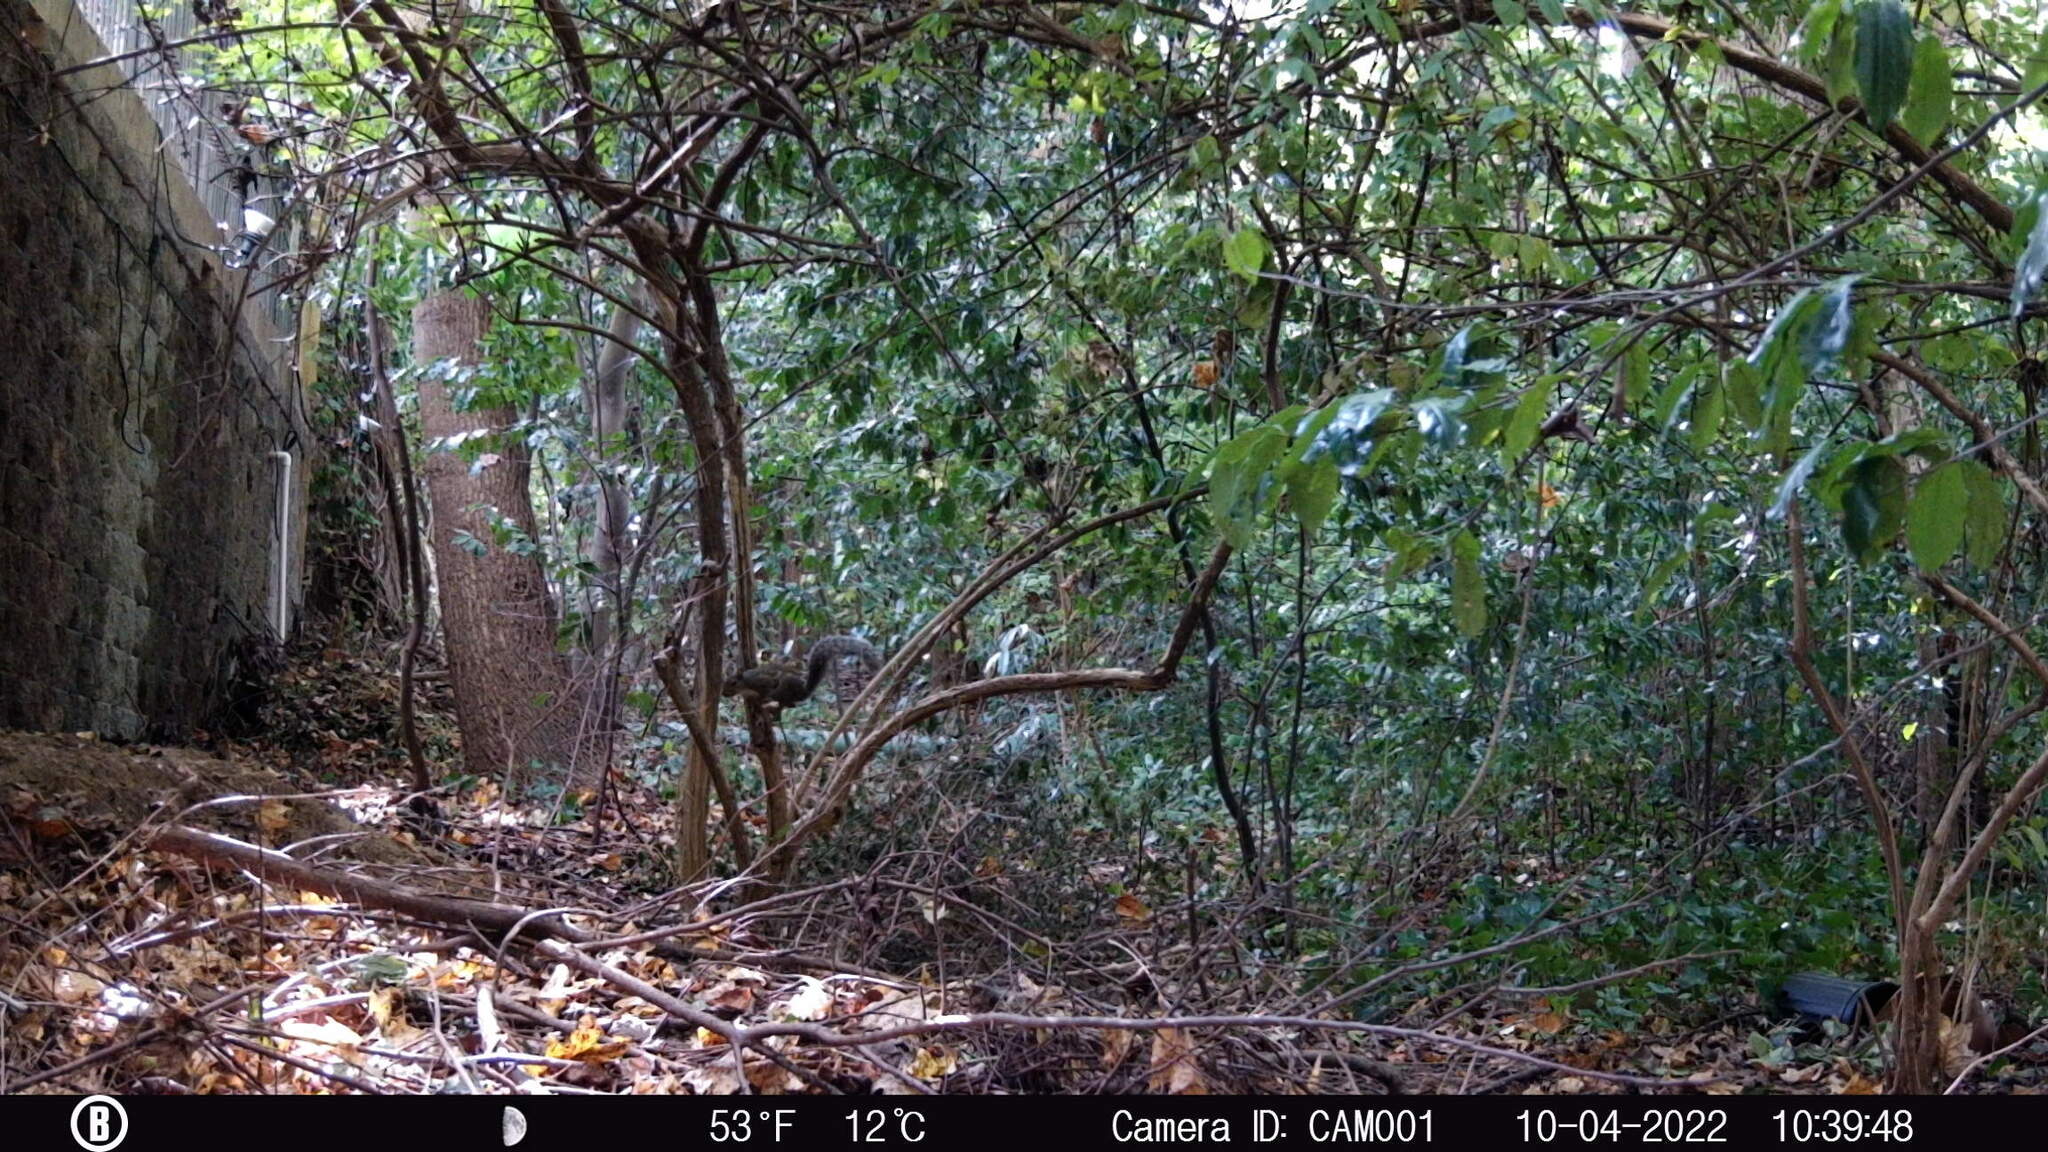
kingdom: Animalia
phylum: Chordata
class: Mammalia
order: Rodentia
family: Sciuridae
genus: Sciurus
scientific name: Sciurus carolinensis
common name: Eastern gray squirrel
